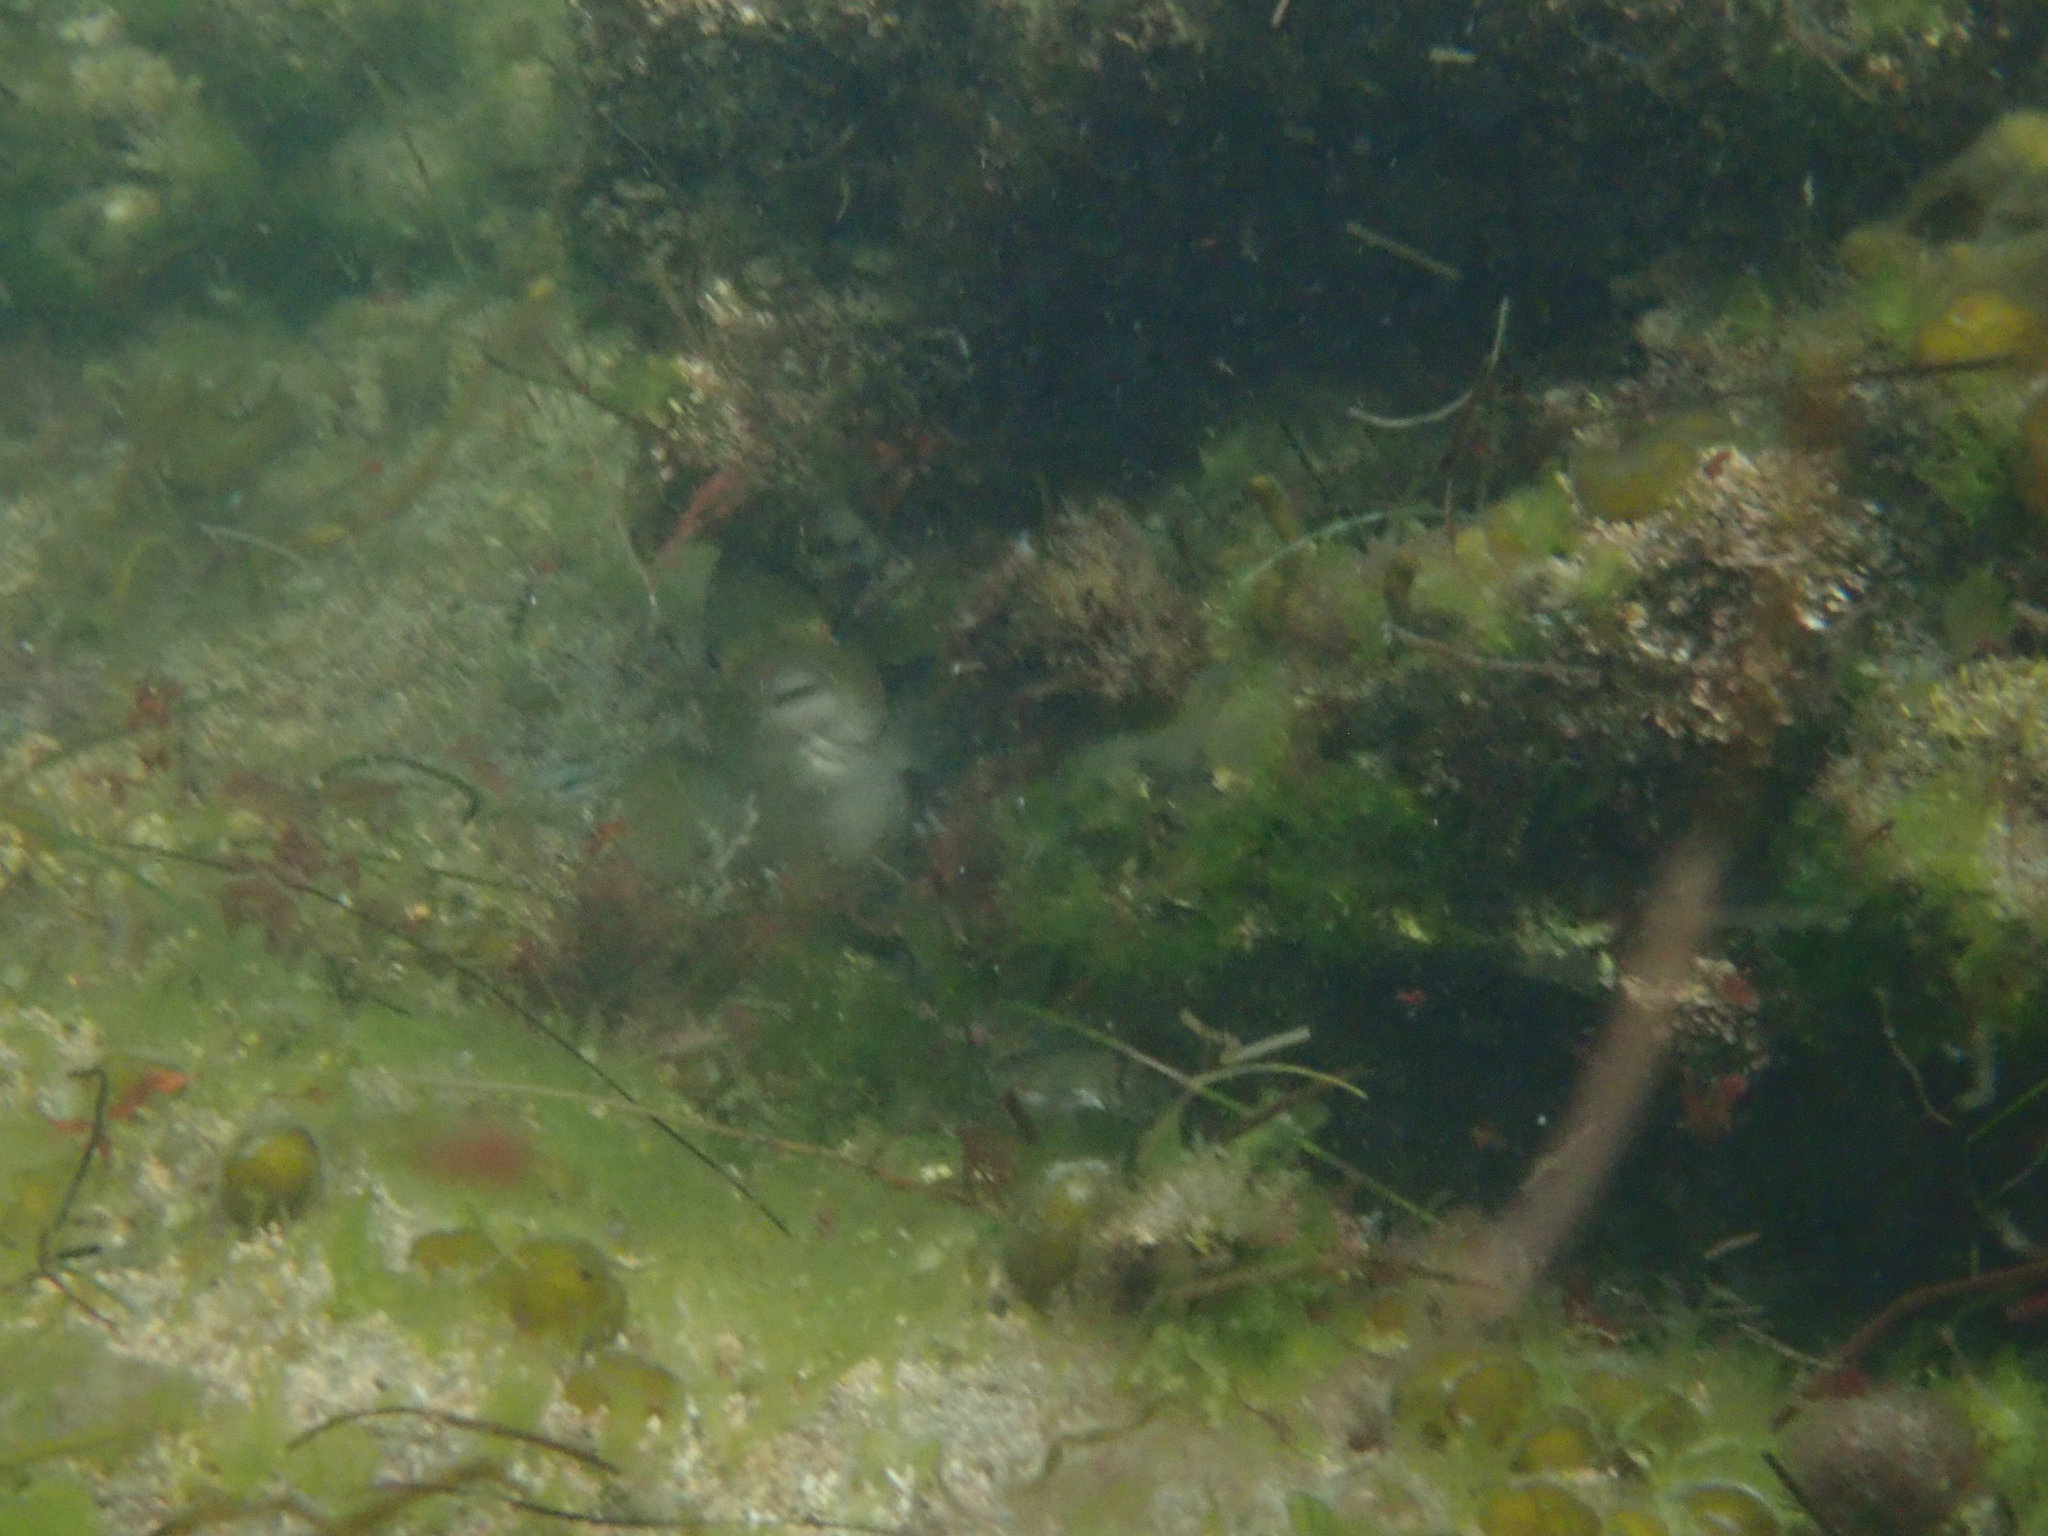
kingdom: Animalia
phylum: Chordata
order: Perciformes
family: Kyphosidae
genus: Girella
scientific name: Girella nigricans
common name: Opaleye
